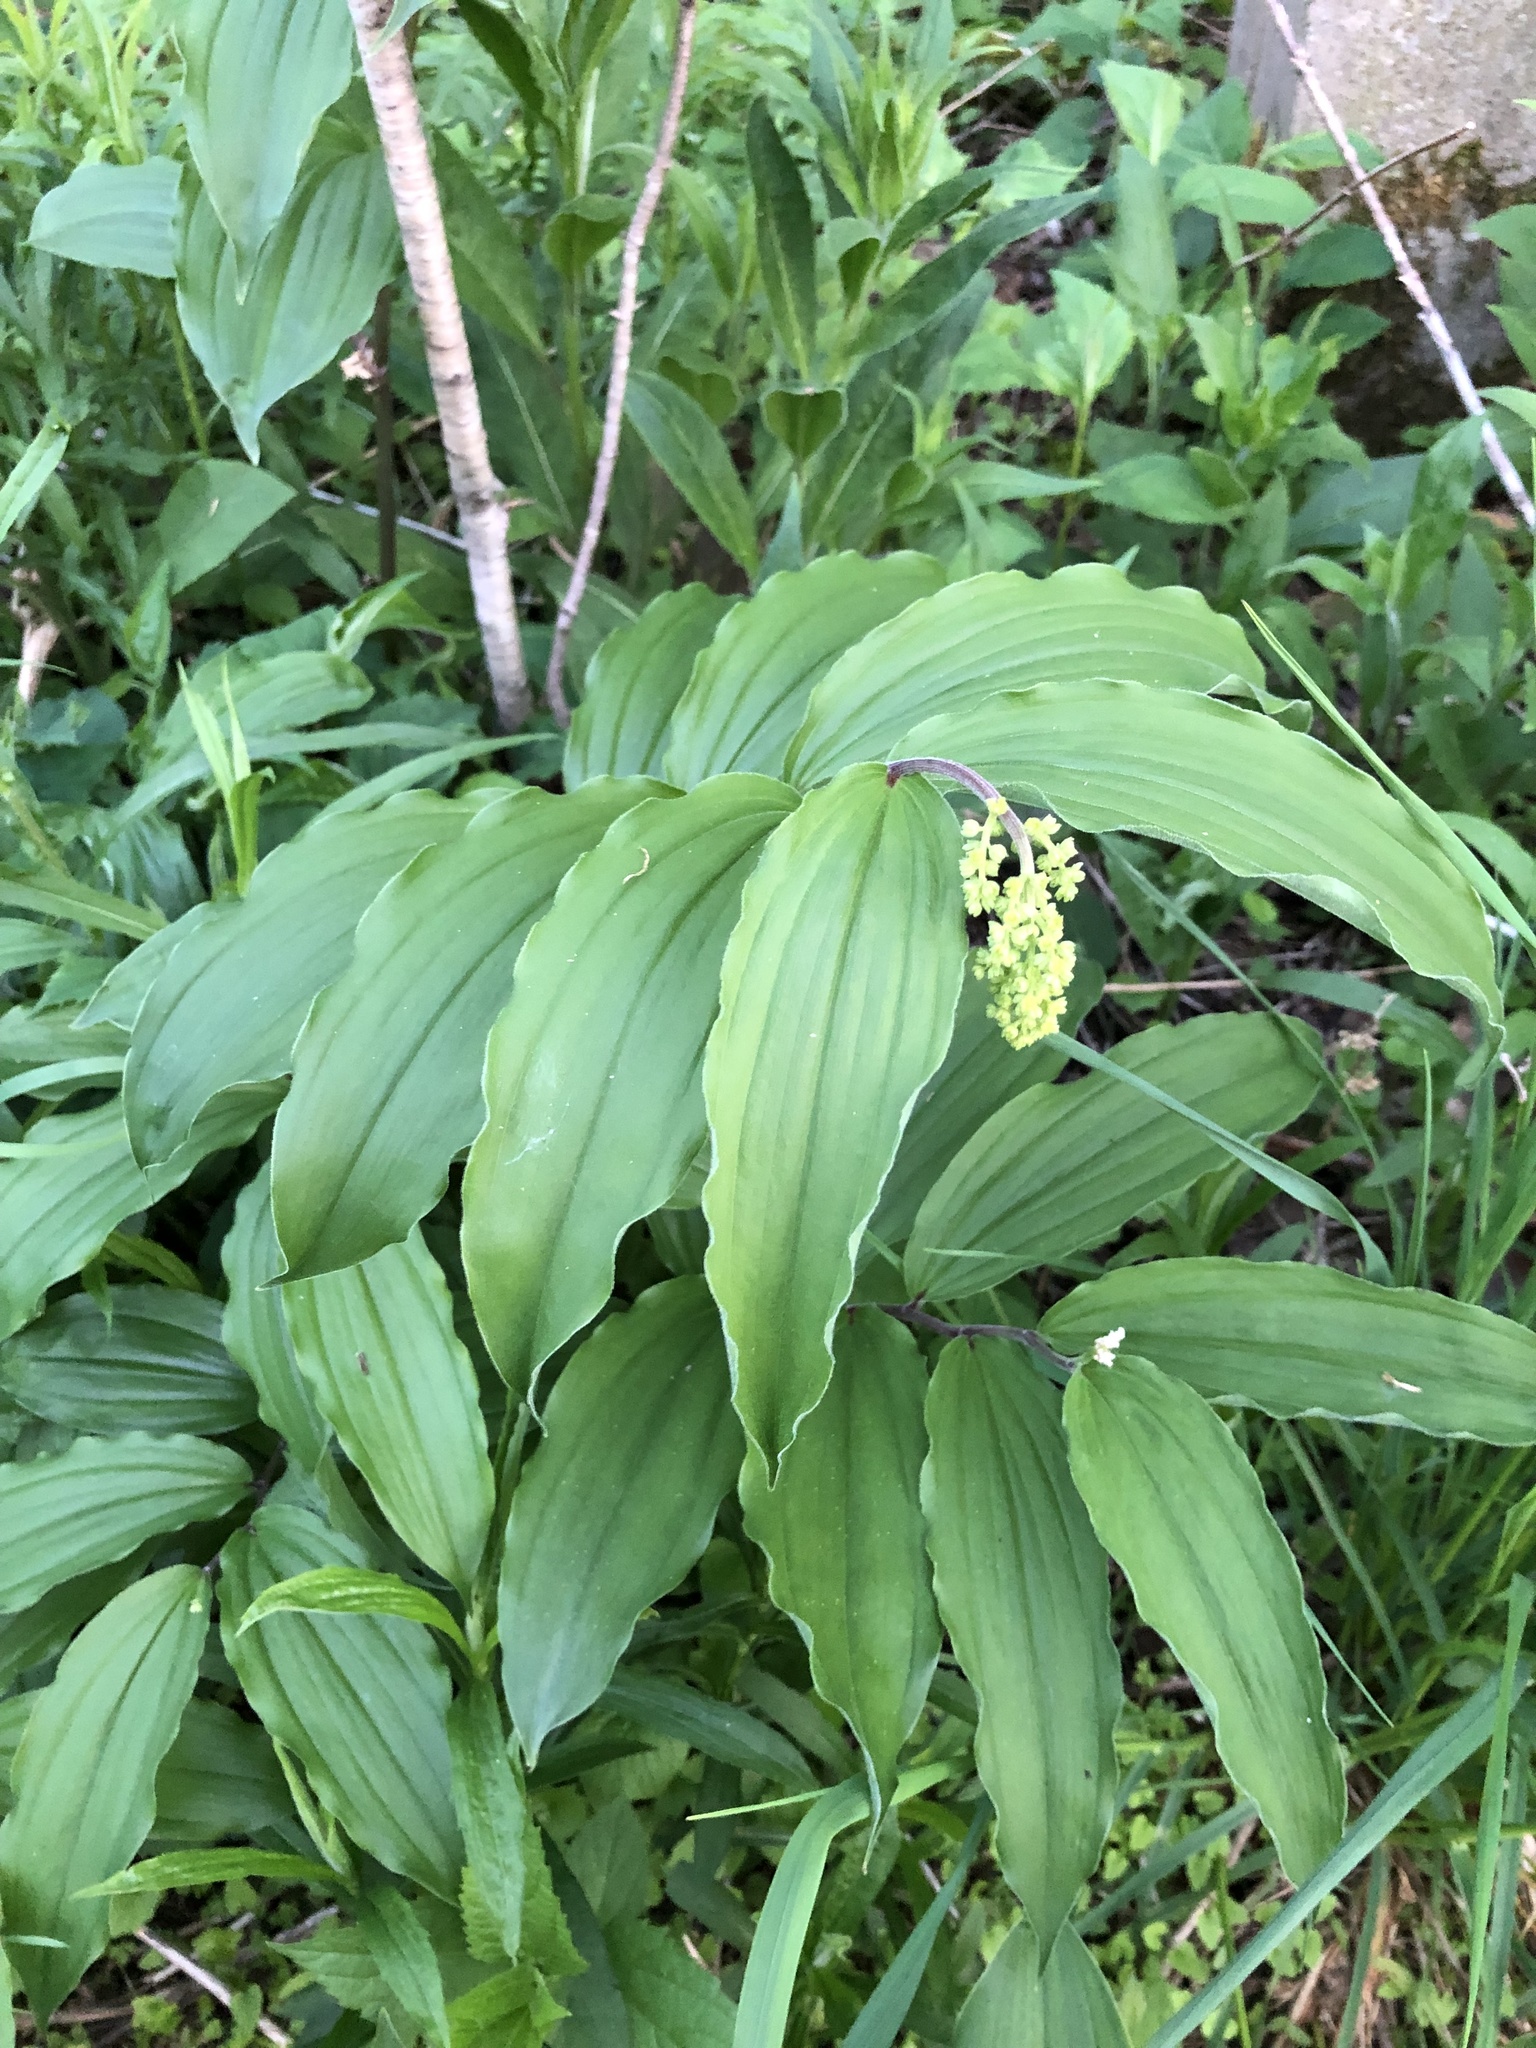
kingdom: Plantae
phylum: Tracheophyta
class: Liliopsida
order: Asparagales
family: Asparagaceae
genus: Maianthemum
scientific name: Maianthemum racemosum
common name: False spikenard
